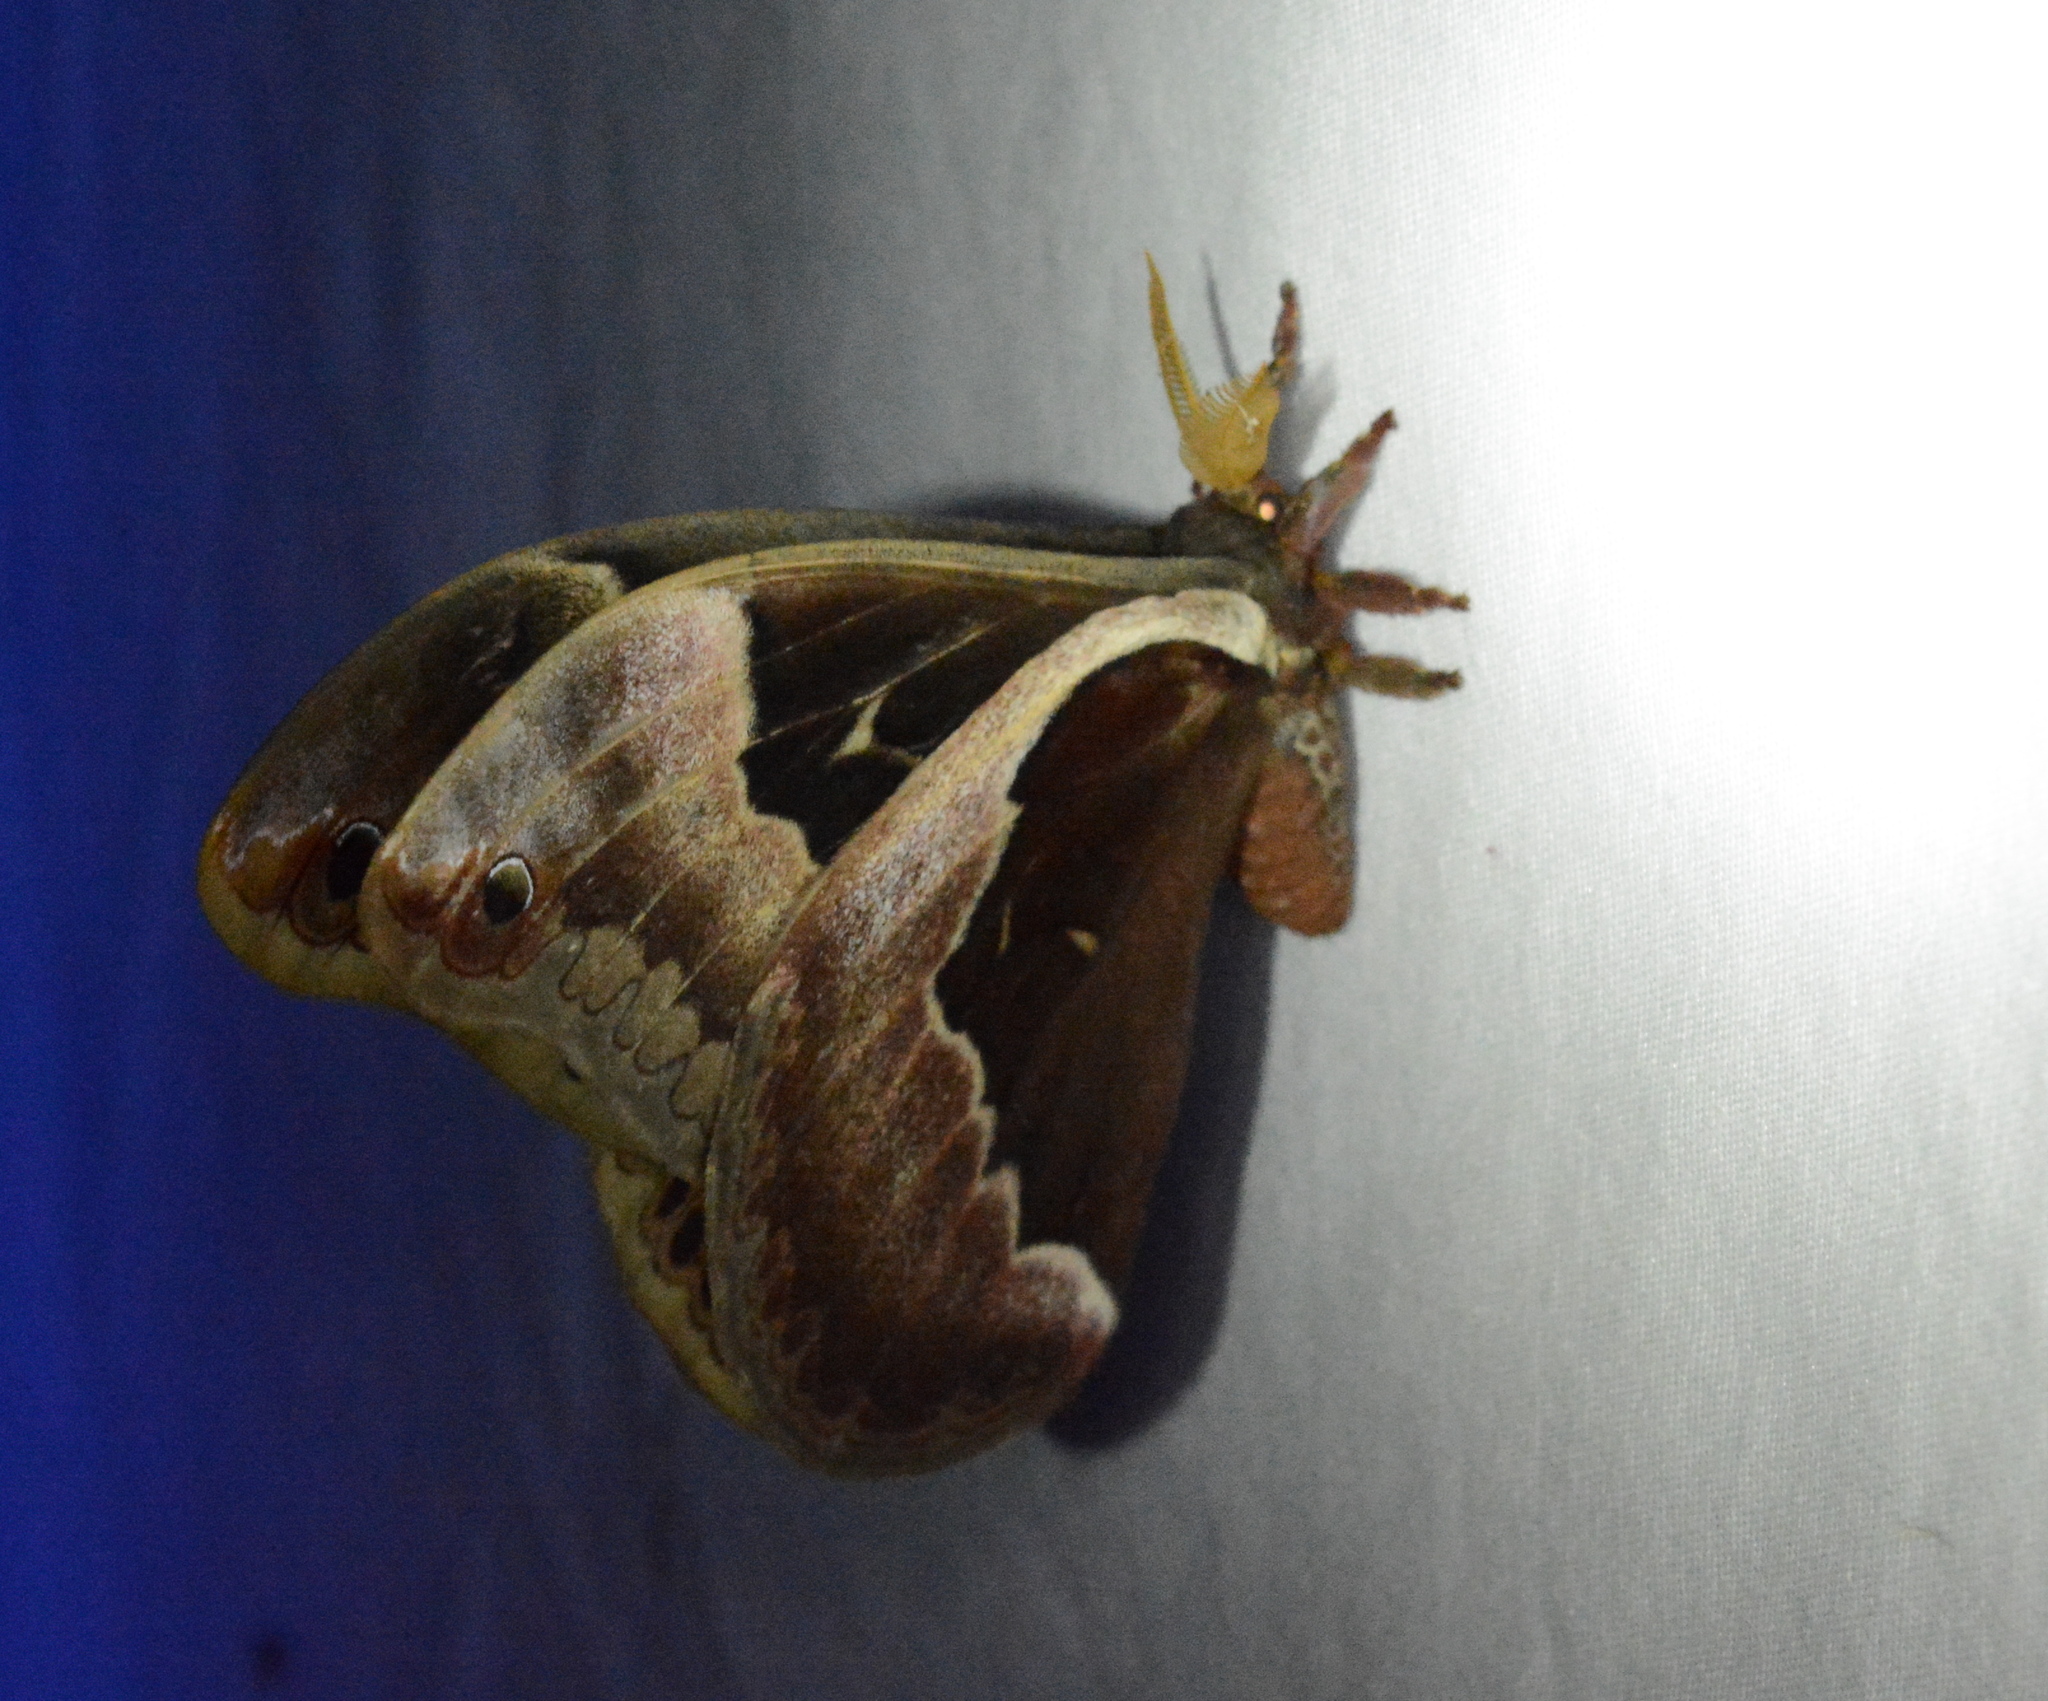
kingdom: Animalia
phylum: Arthropoda
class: Insecta
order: Lepidoptera
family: Saturniidae
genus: Callosamia
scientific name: Callosamia promethea
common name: Promethea silkmoth
